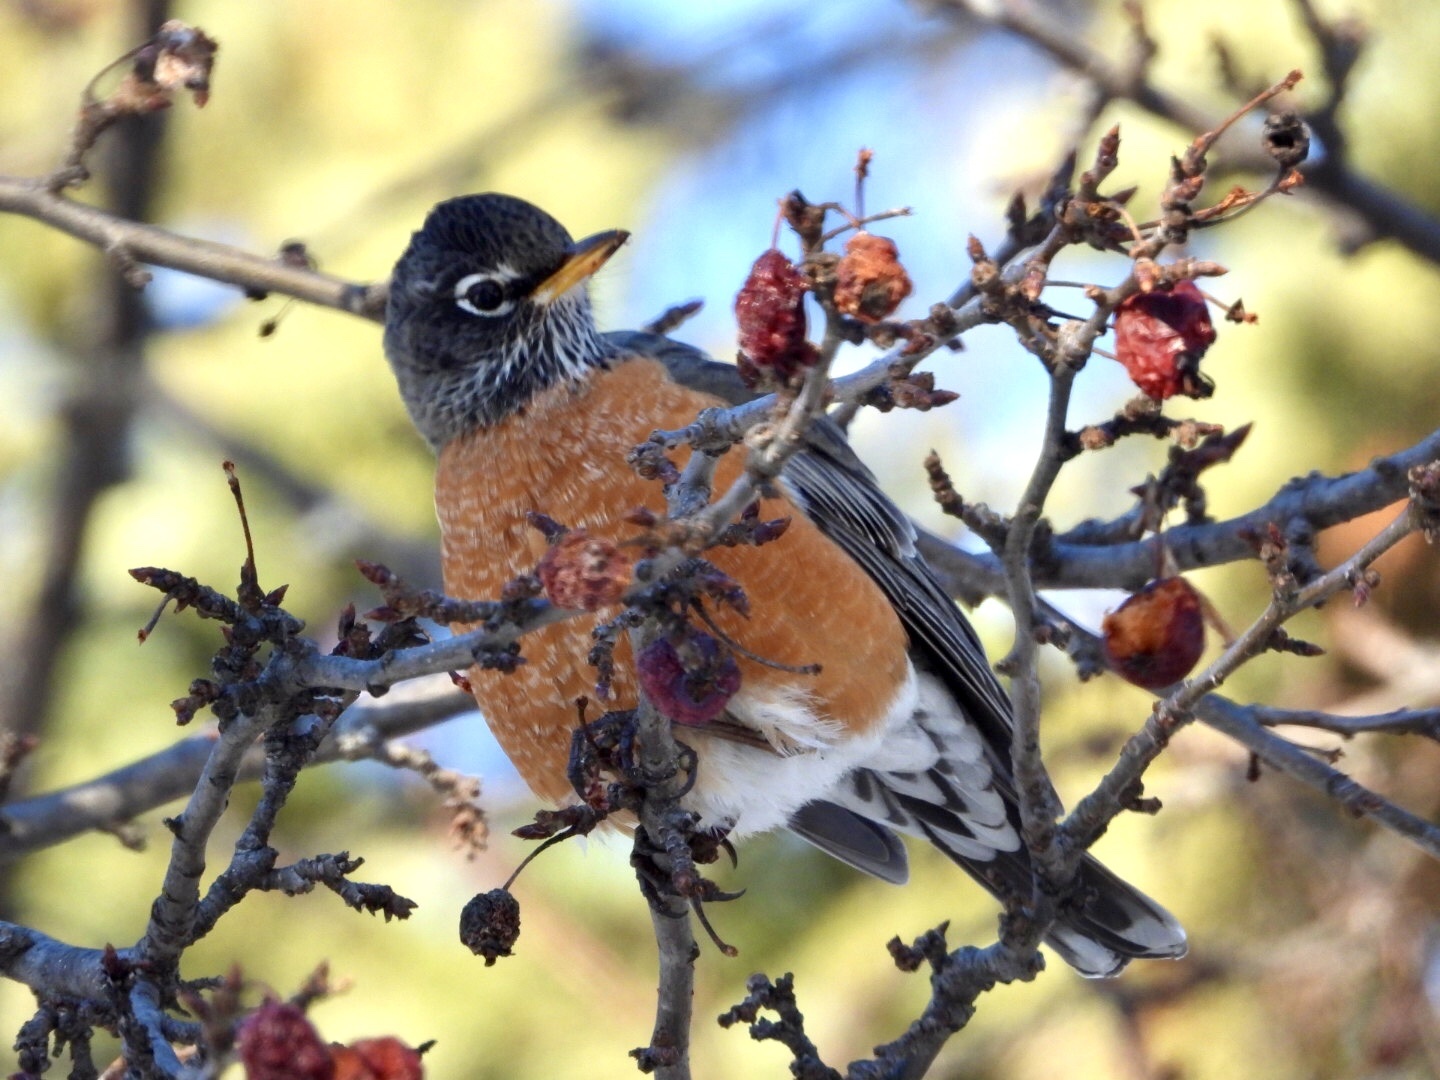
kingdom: Animalia
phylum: Chordata
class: Aves
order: Passeriformes
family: Turdidae
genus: Turdus
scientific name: Turdus migratorius
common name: American robin
